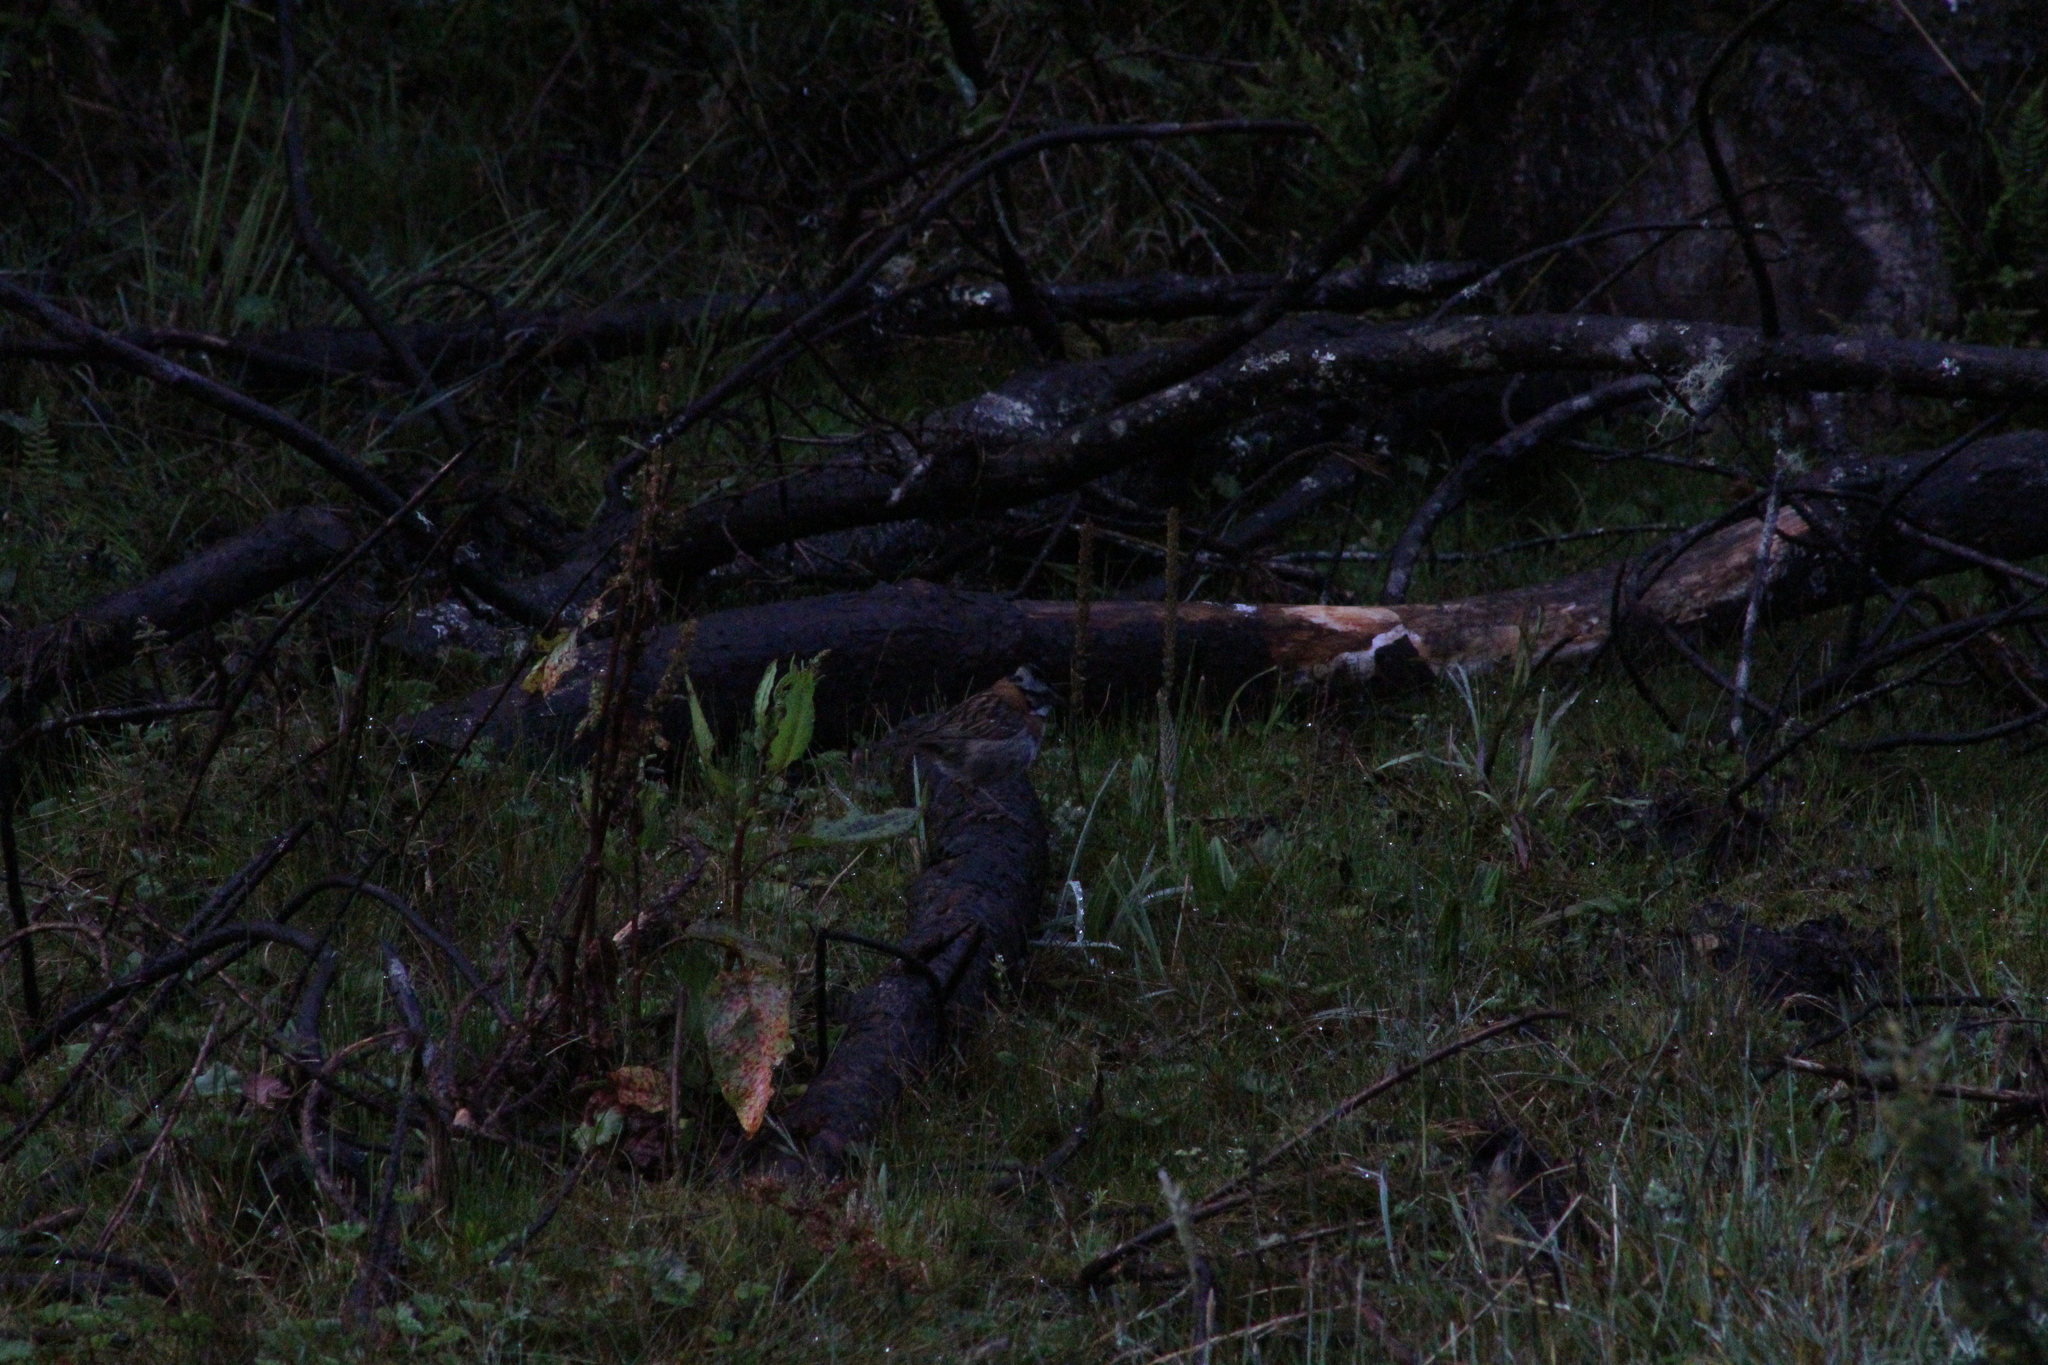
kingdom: Animalia
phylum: Chordata
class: Aves
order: Passeriformes
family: Passerellidae
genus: Zonotrichia
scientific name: Zonotrichia capensis
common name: Rufous-collared sparrow
